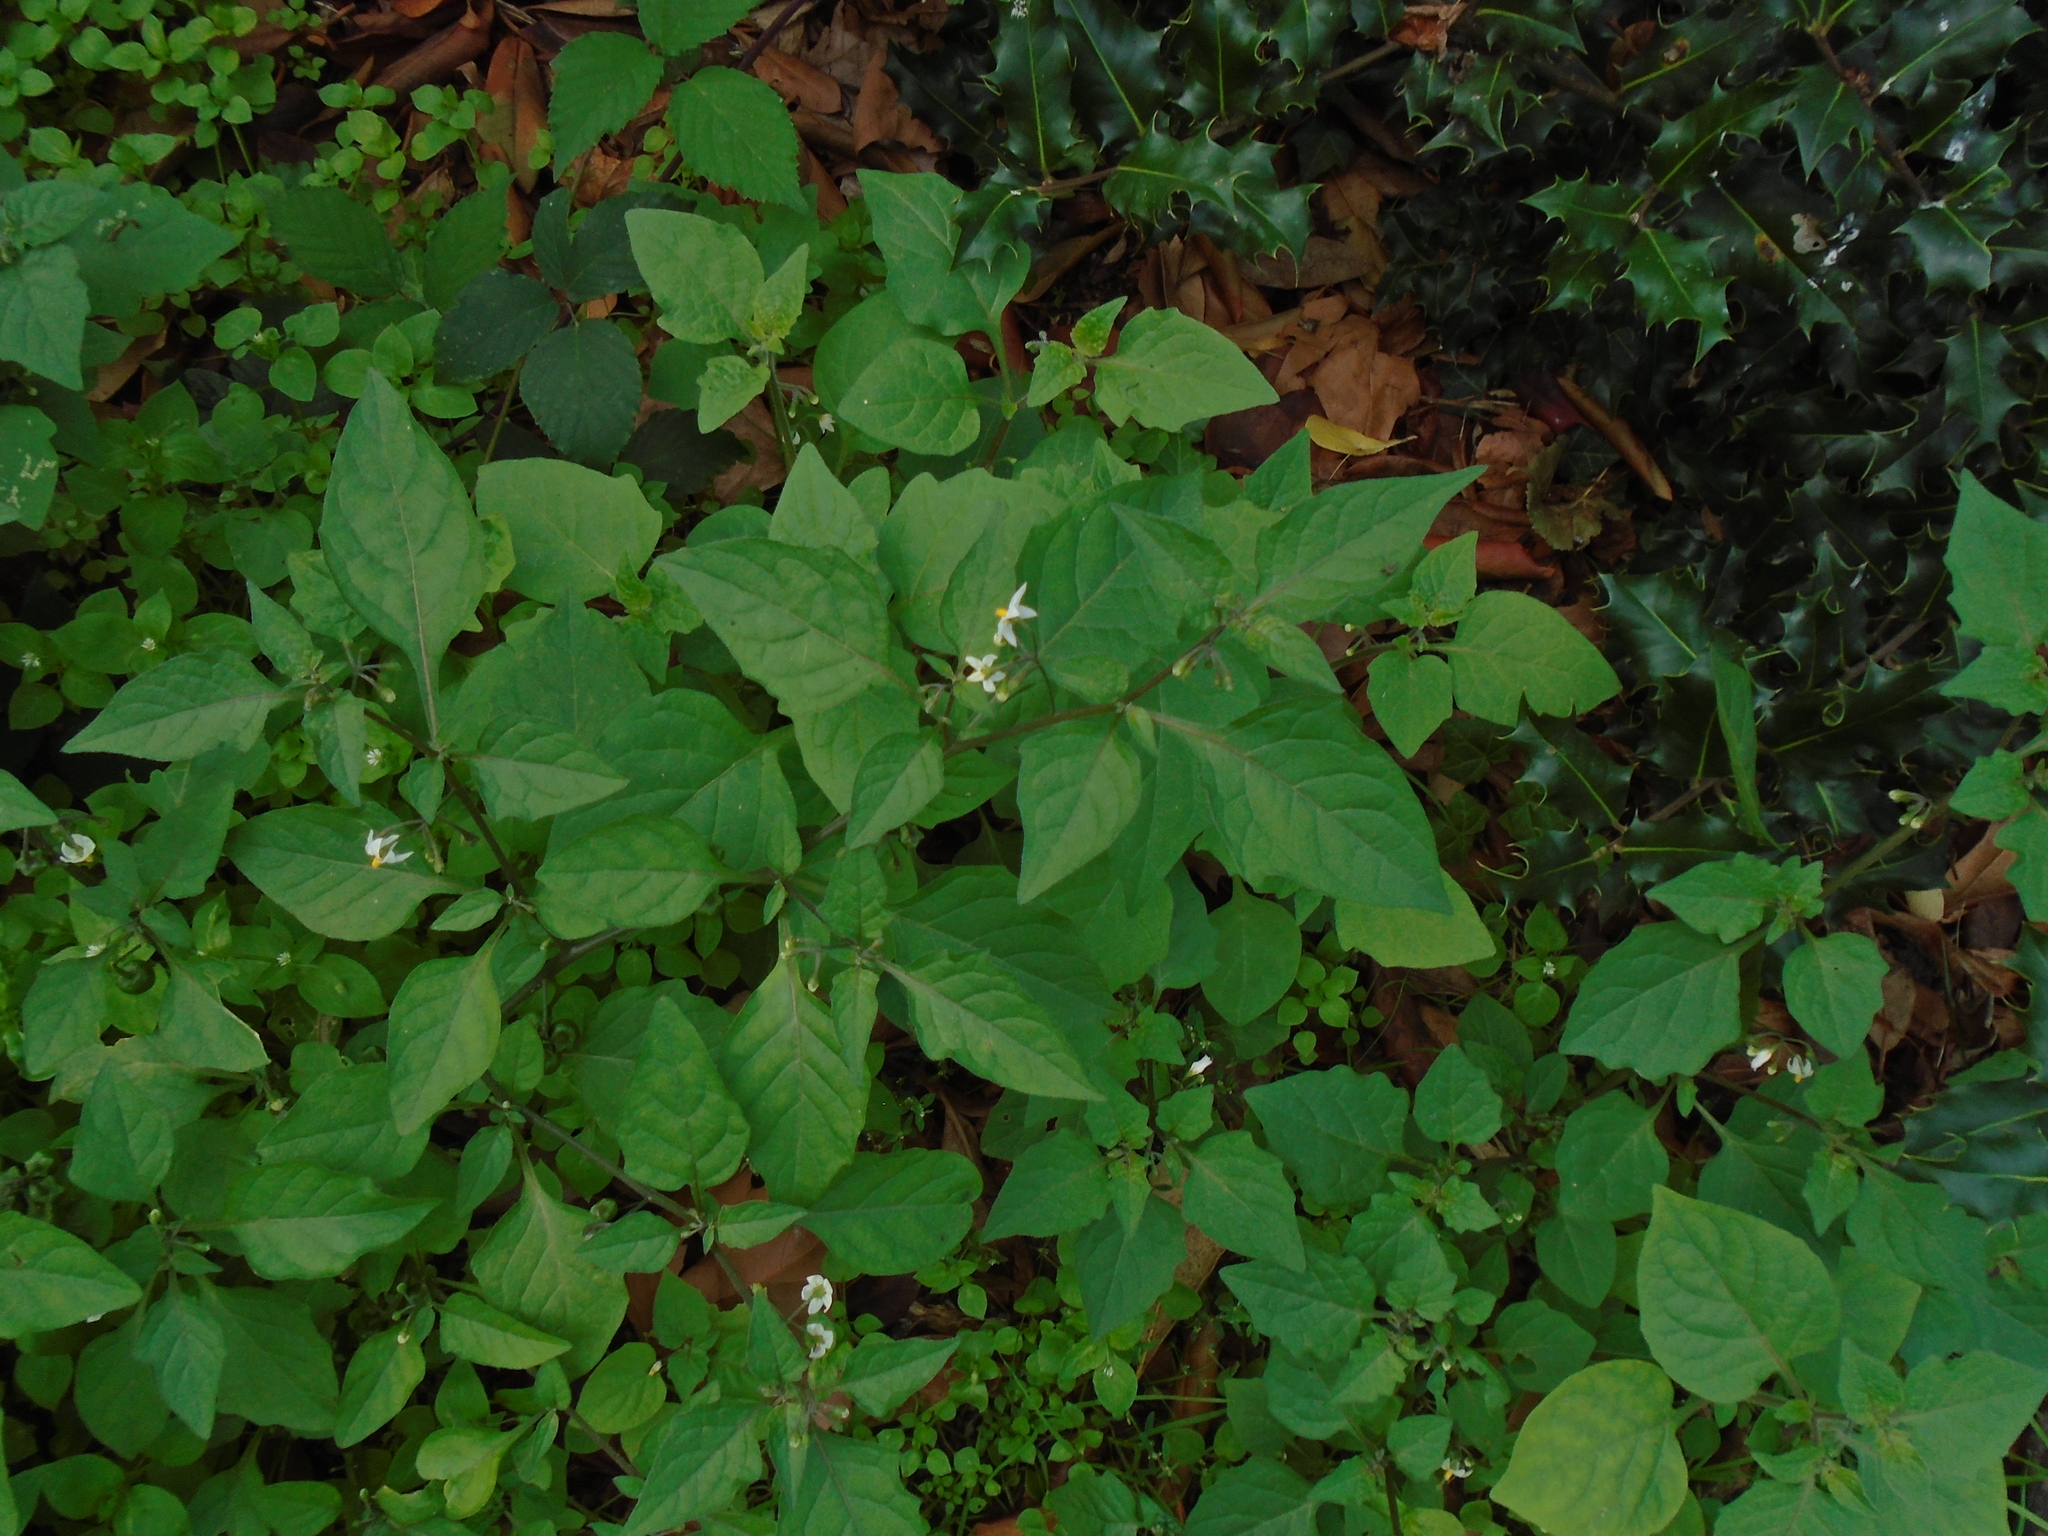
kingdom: Plantae
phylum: Tracheophyta
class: Magnoliopsida
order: Solanales
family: Solanaceae
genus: Solanum
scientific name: Solanum nigrum
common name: Black nightshade
